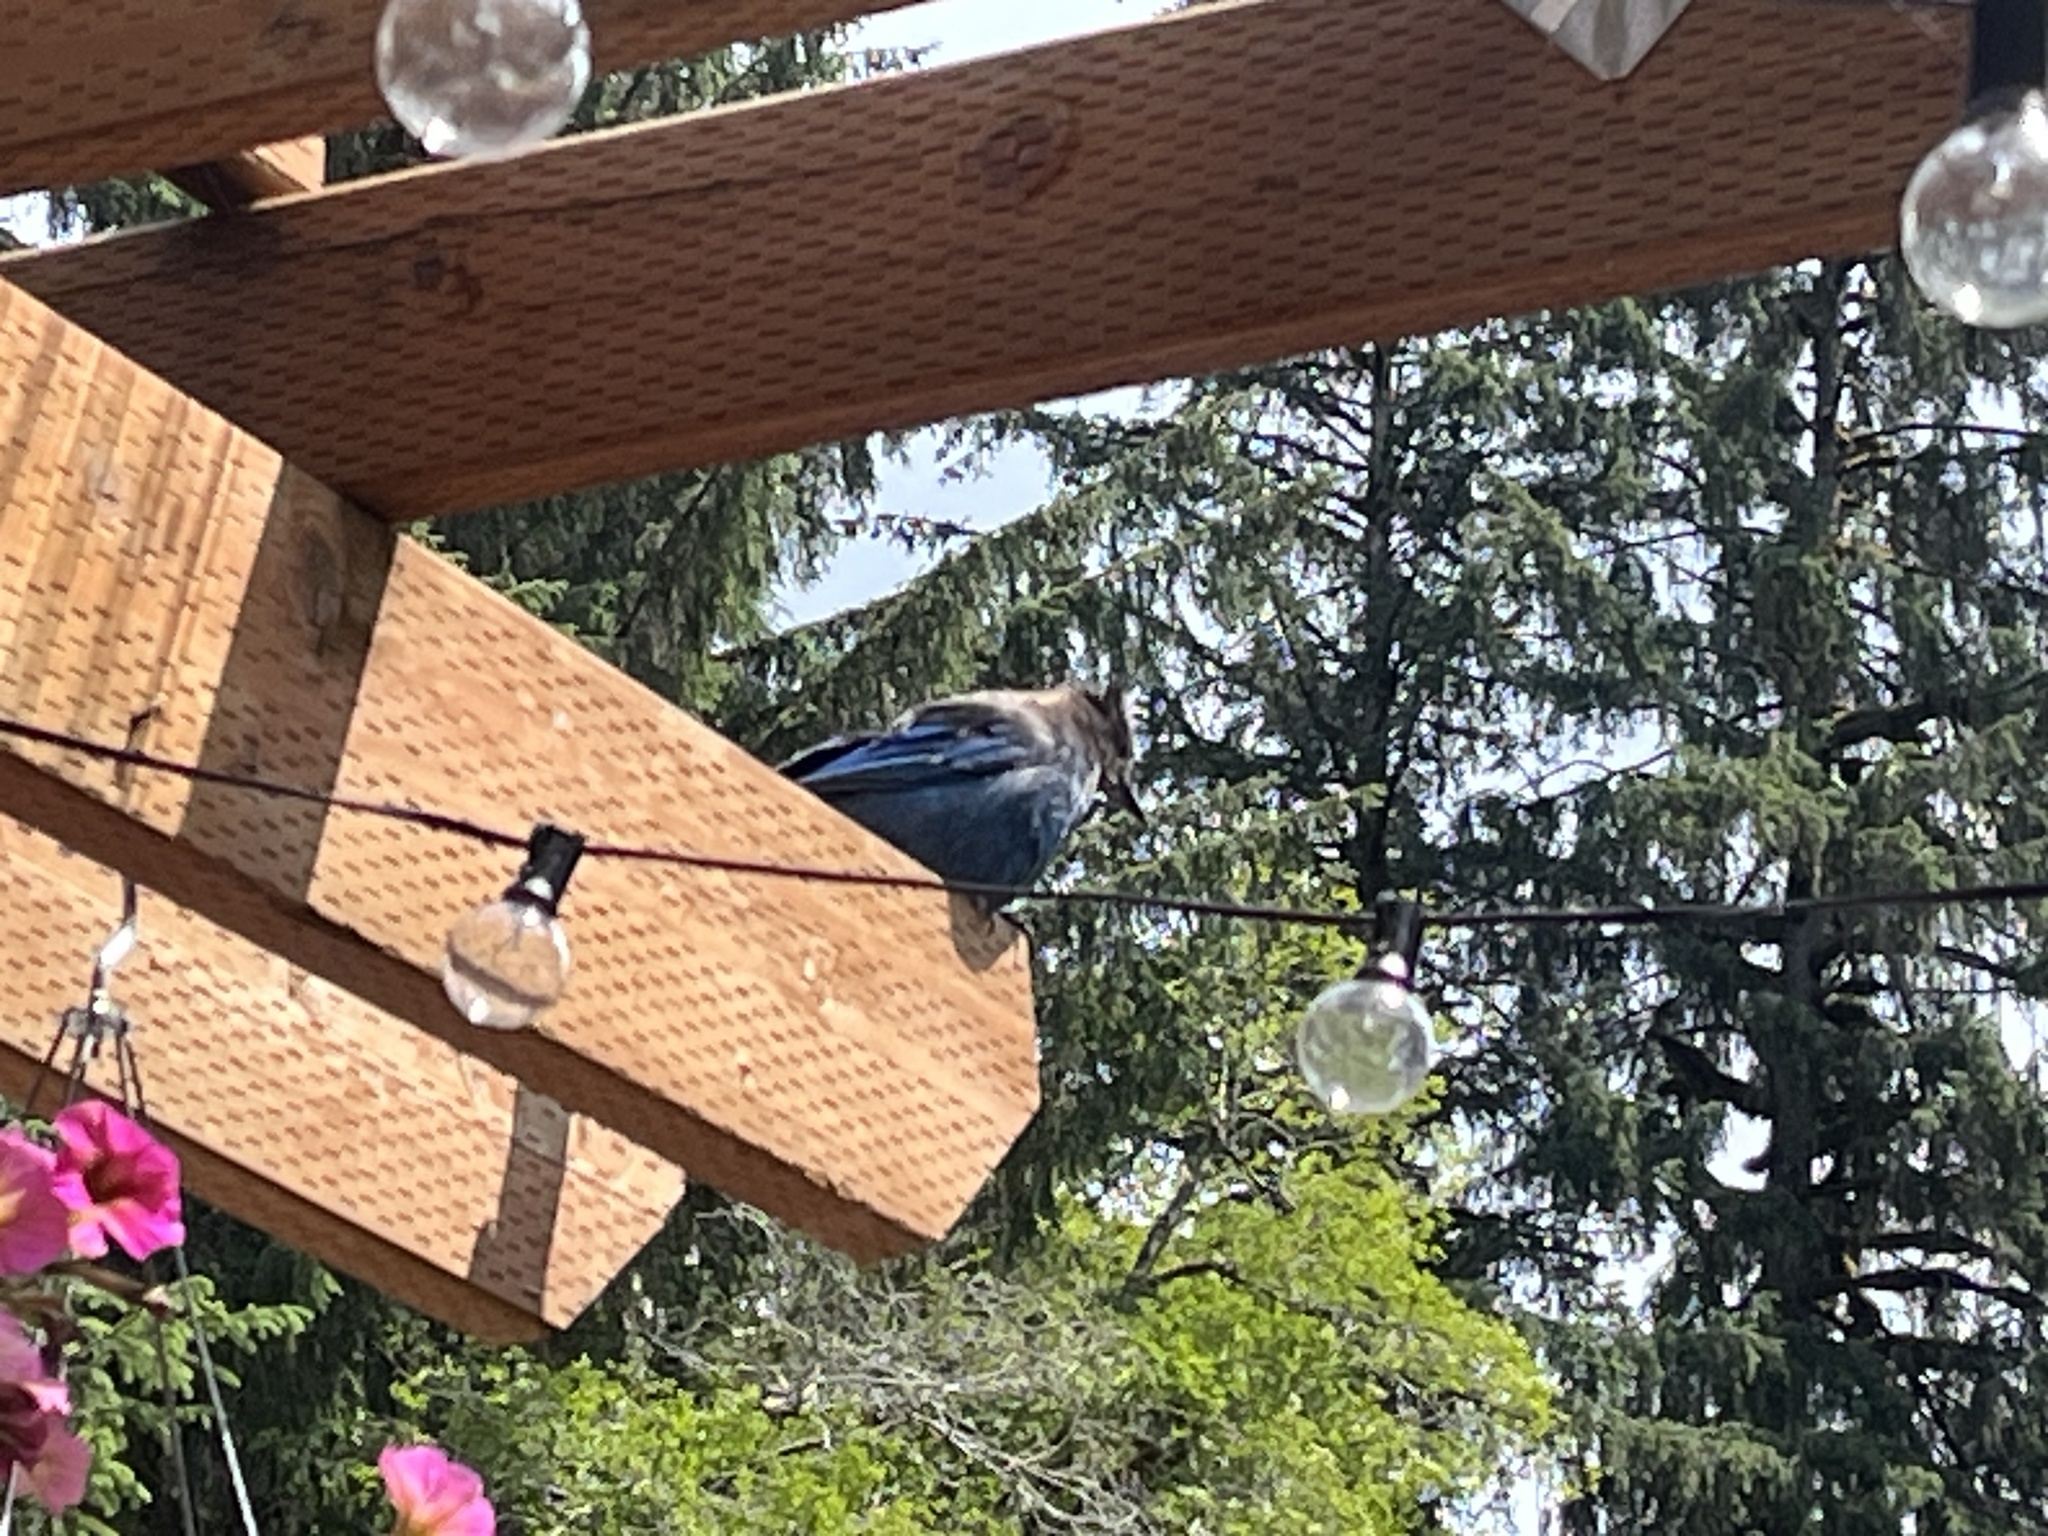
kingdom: Animalia
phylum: Chordata
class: Aves
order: Passeriformes
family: Corvidae
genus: Cyanocitta
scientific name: Cyanocitta stelleri
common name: Steller's jay
